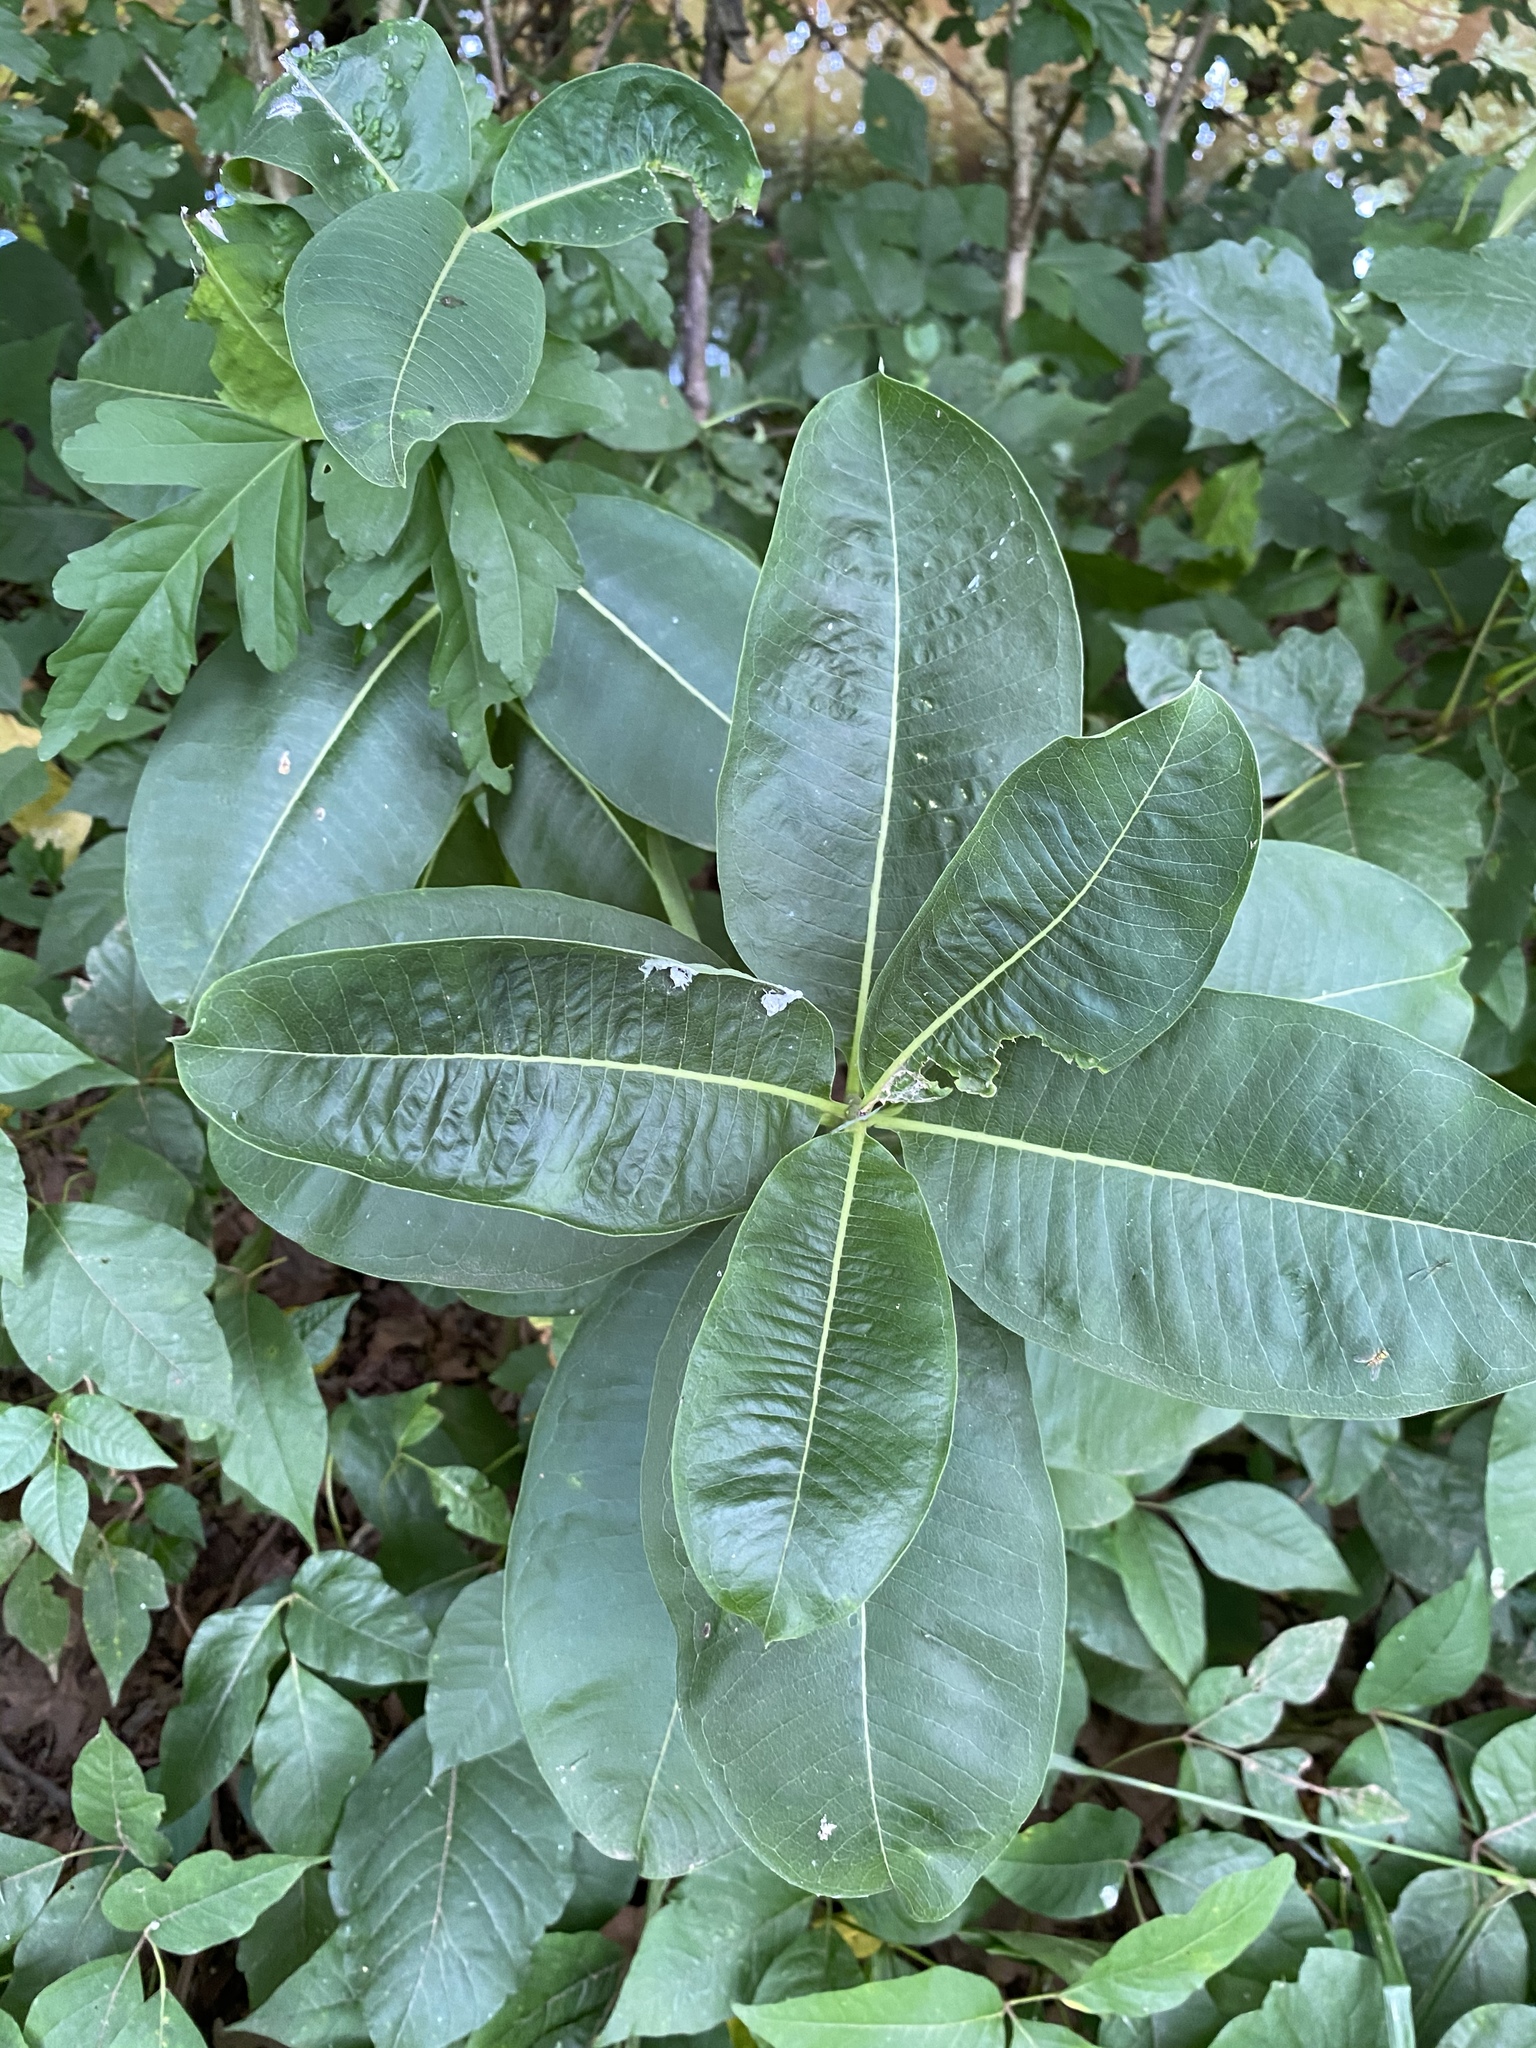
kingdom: Plantae
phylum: Tracheophyta
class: Magnoliopsida
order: Gentianales
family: Apocynaceae
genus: Asclepias
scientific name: Asclepias syriaca
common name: Common milkweed
